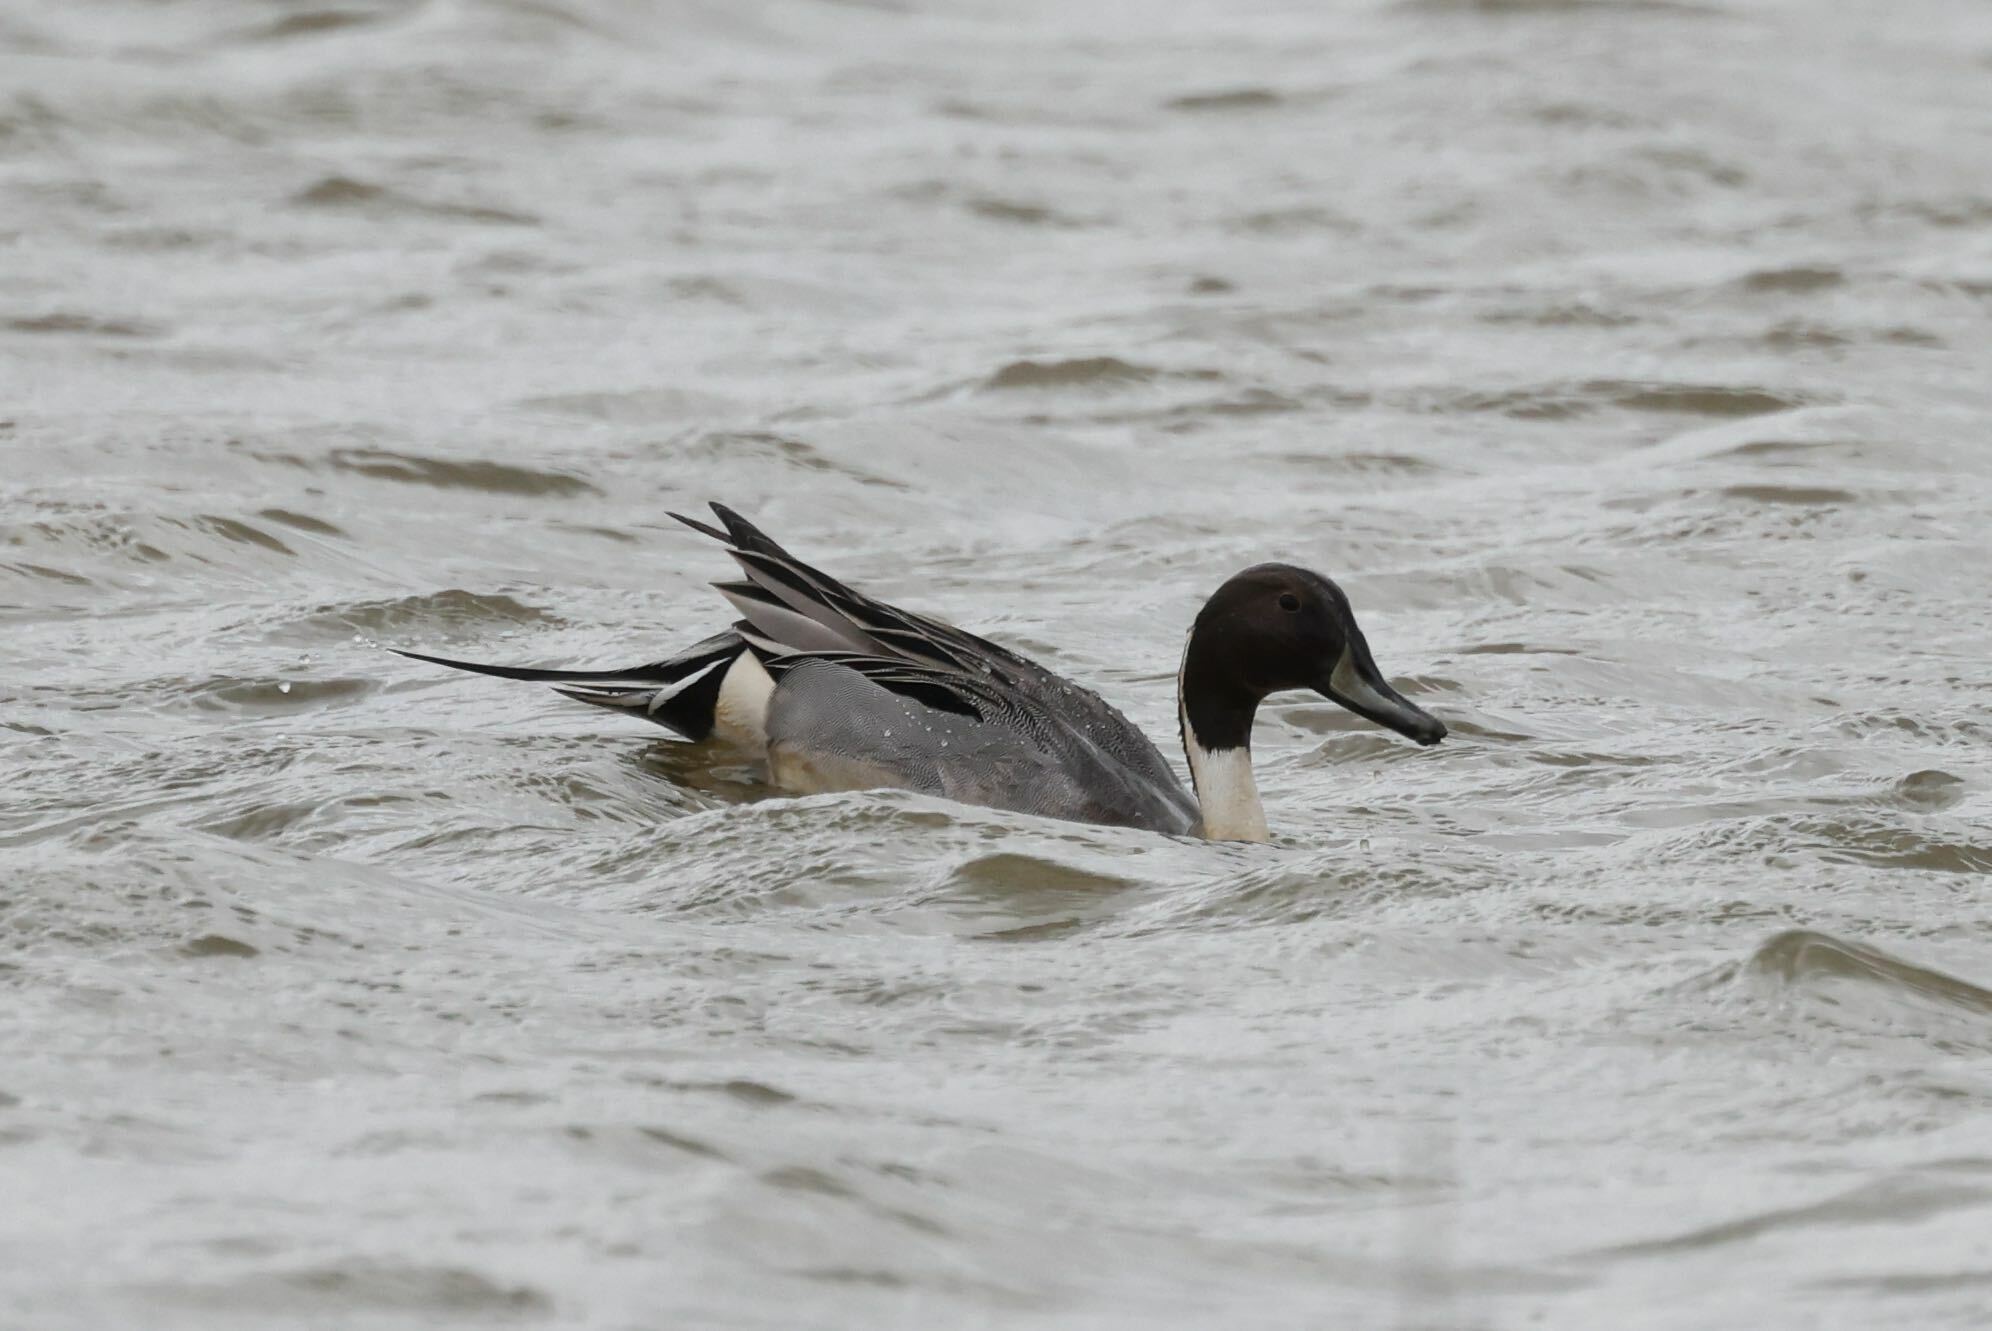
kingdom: Animalia
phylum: Chordata
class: Aves
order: Anseriformes
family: Anatidae
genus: Anas
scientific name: Anas acuta
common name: Northern pintail
